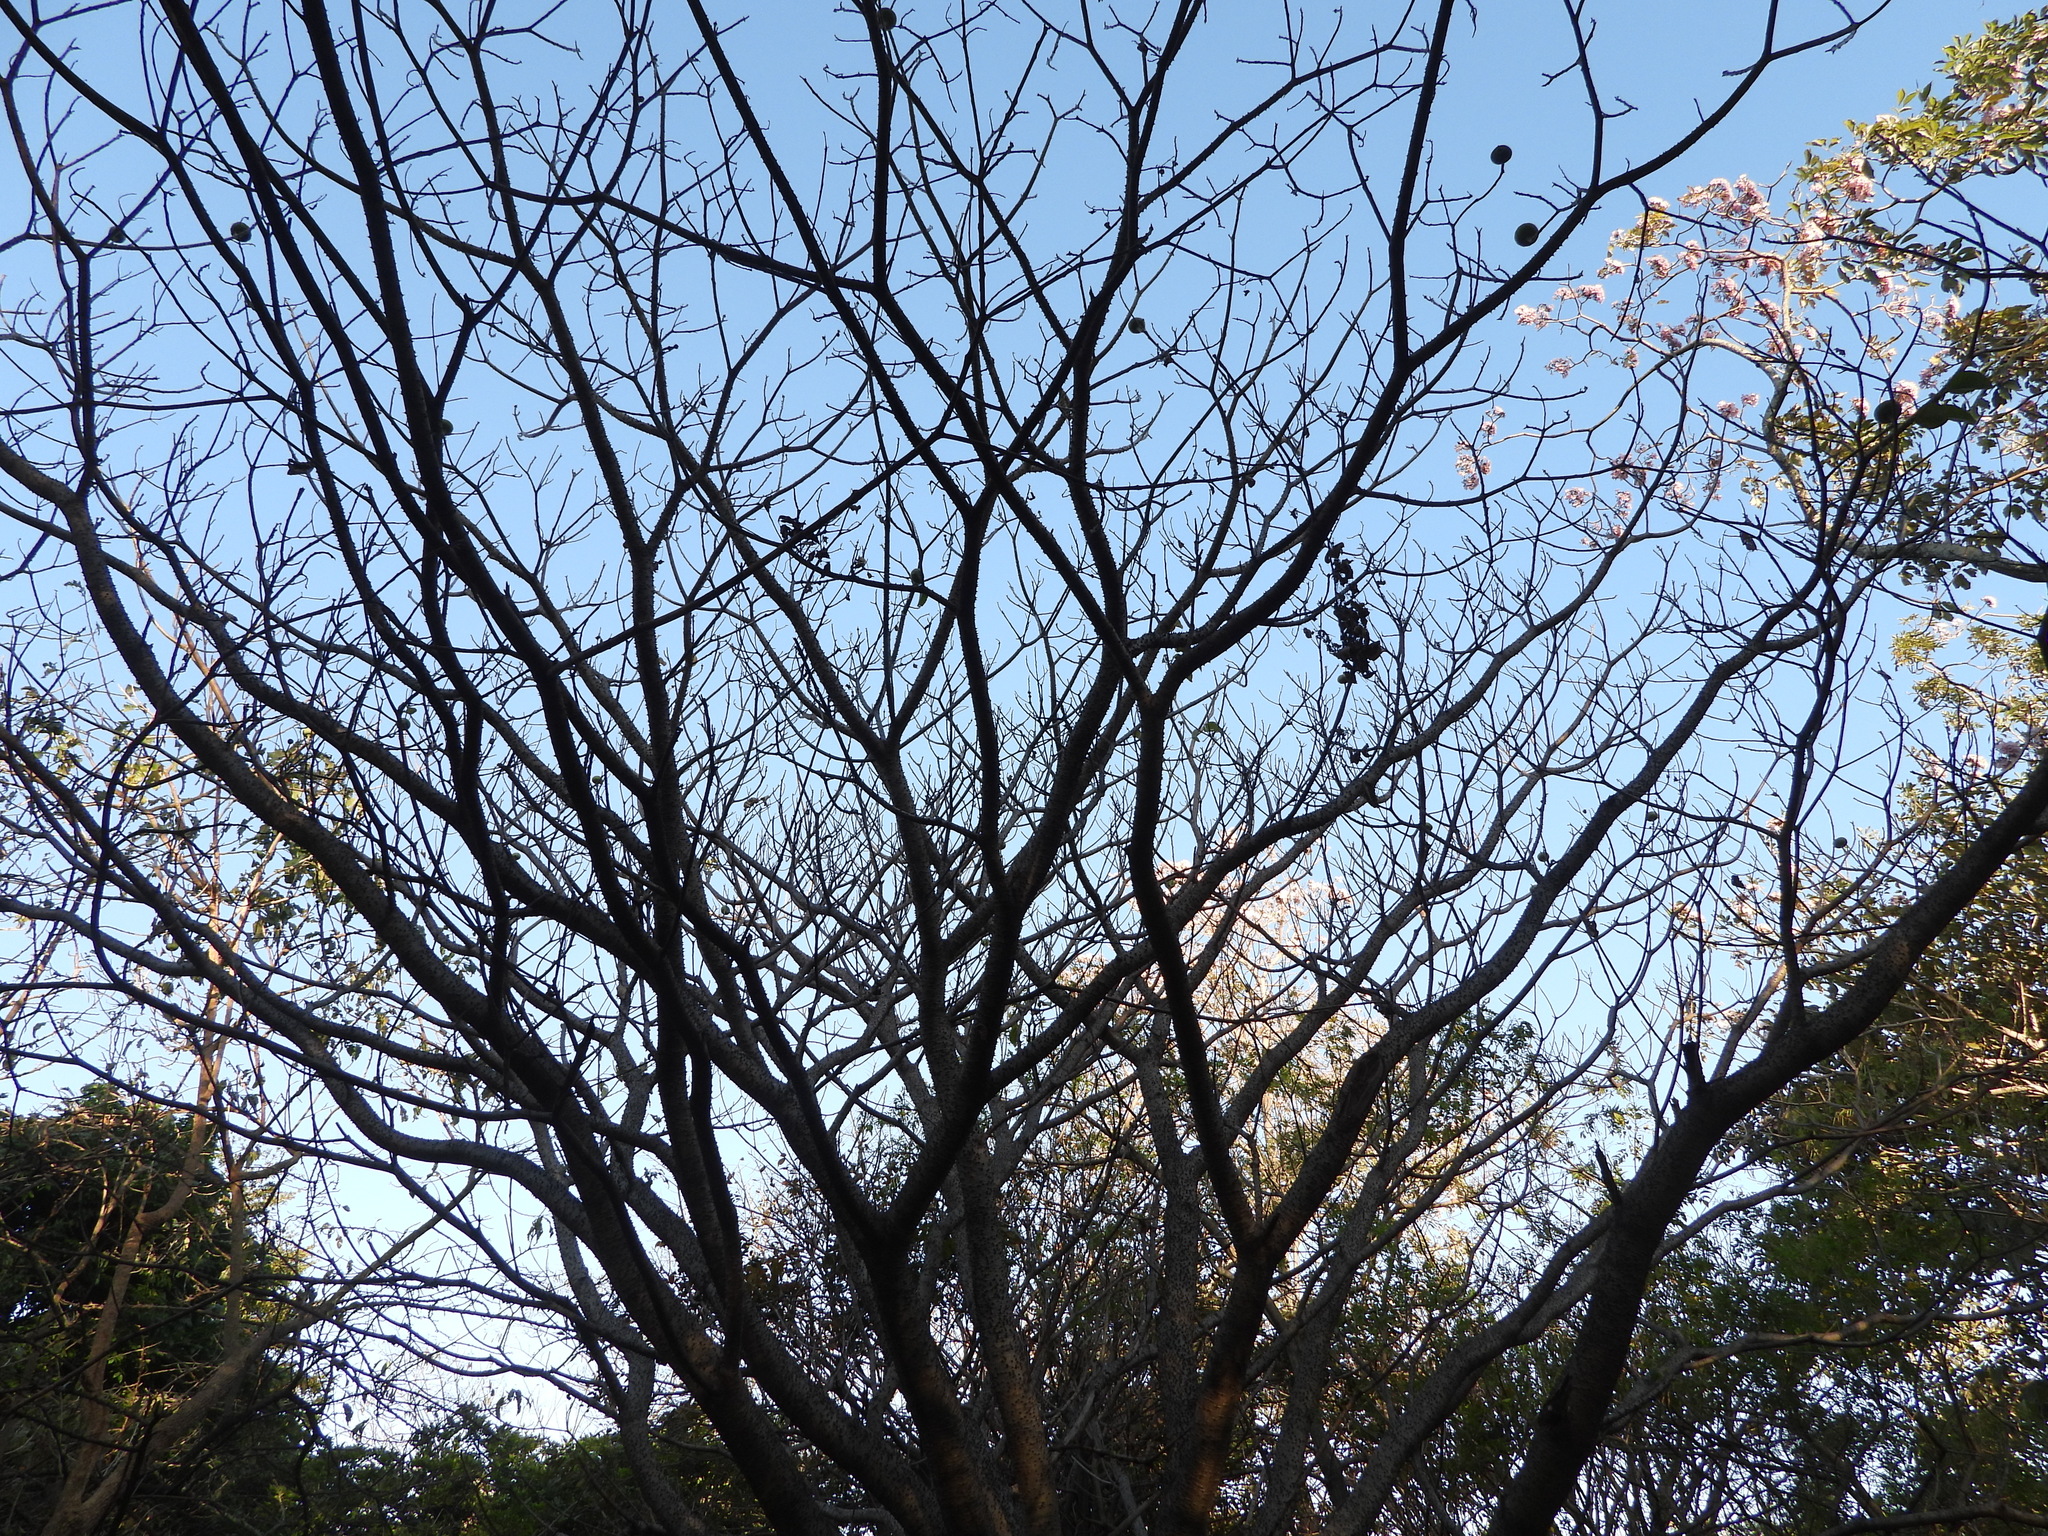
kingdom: Plantae
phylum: Tracheophyta
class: Magnoliopsida
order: Malpighiales
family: Euphorbiaceae
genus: Hura
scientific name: Hura crepitans
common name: Sandboxtree
